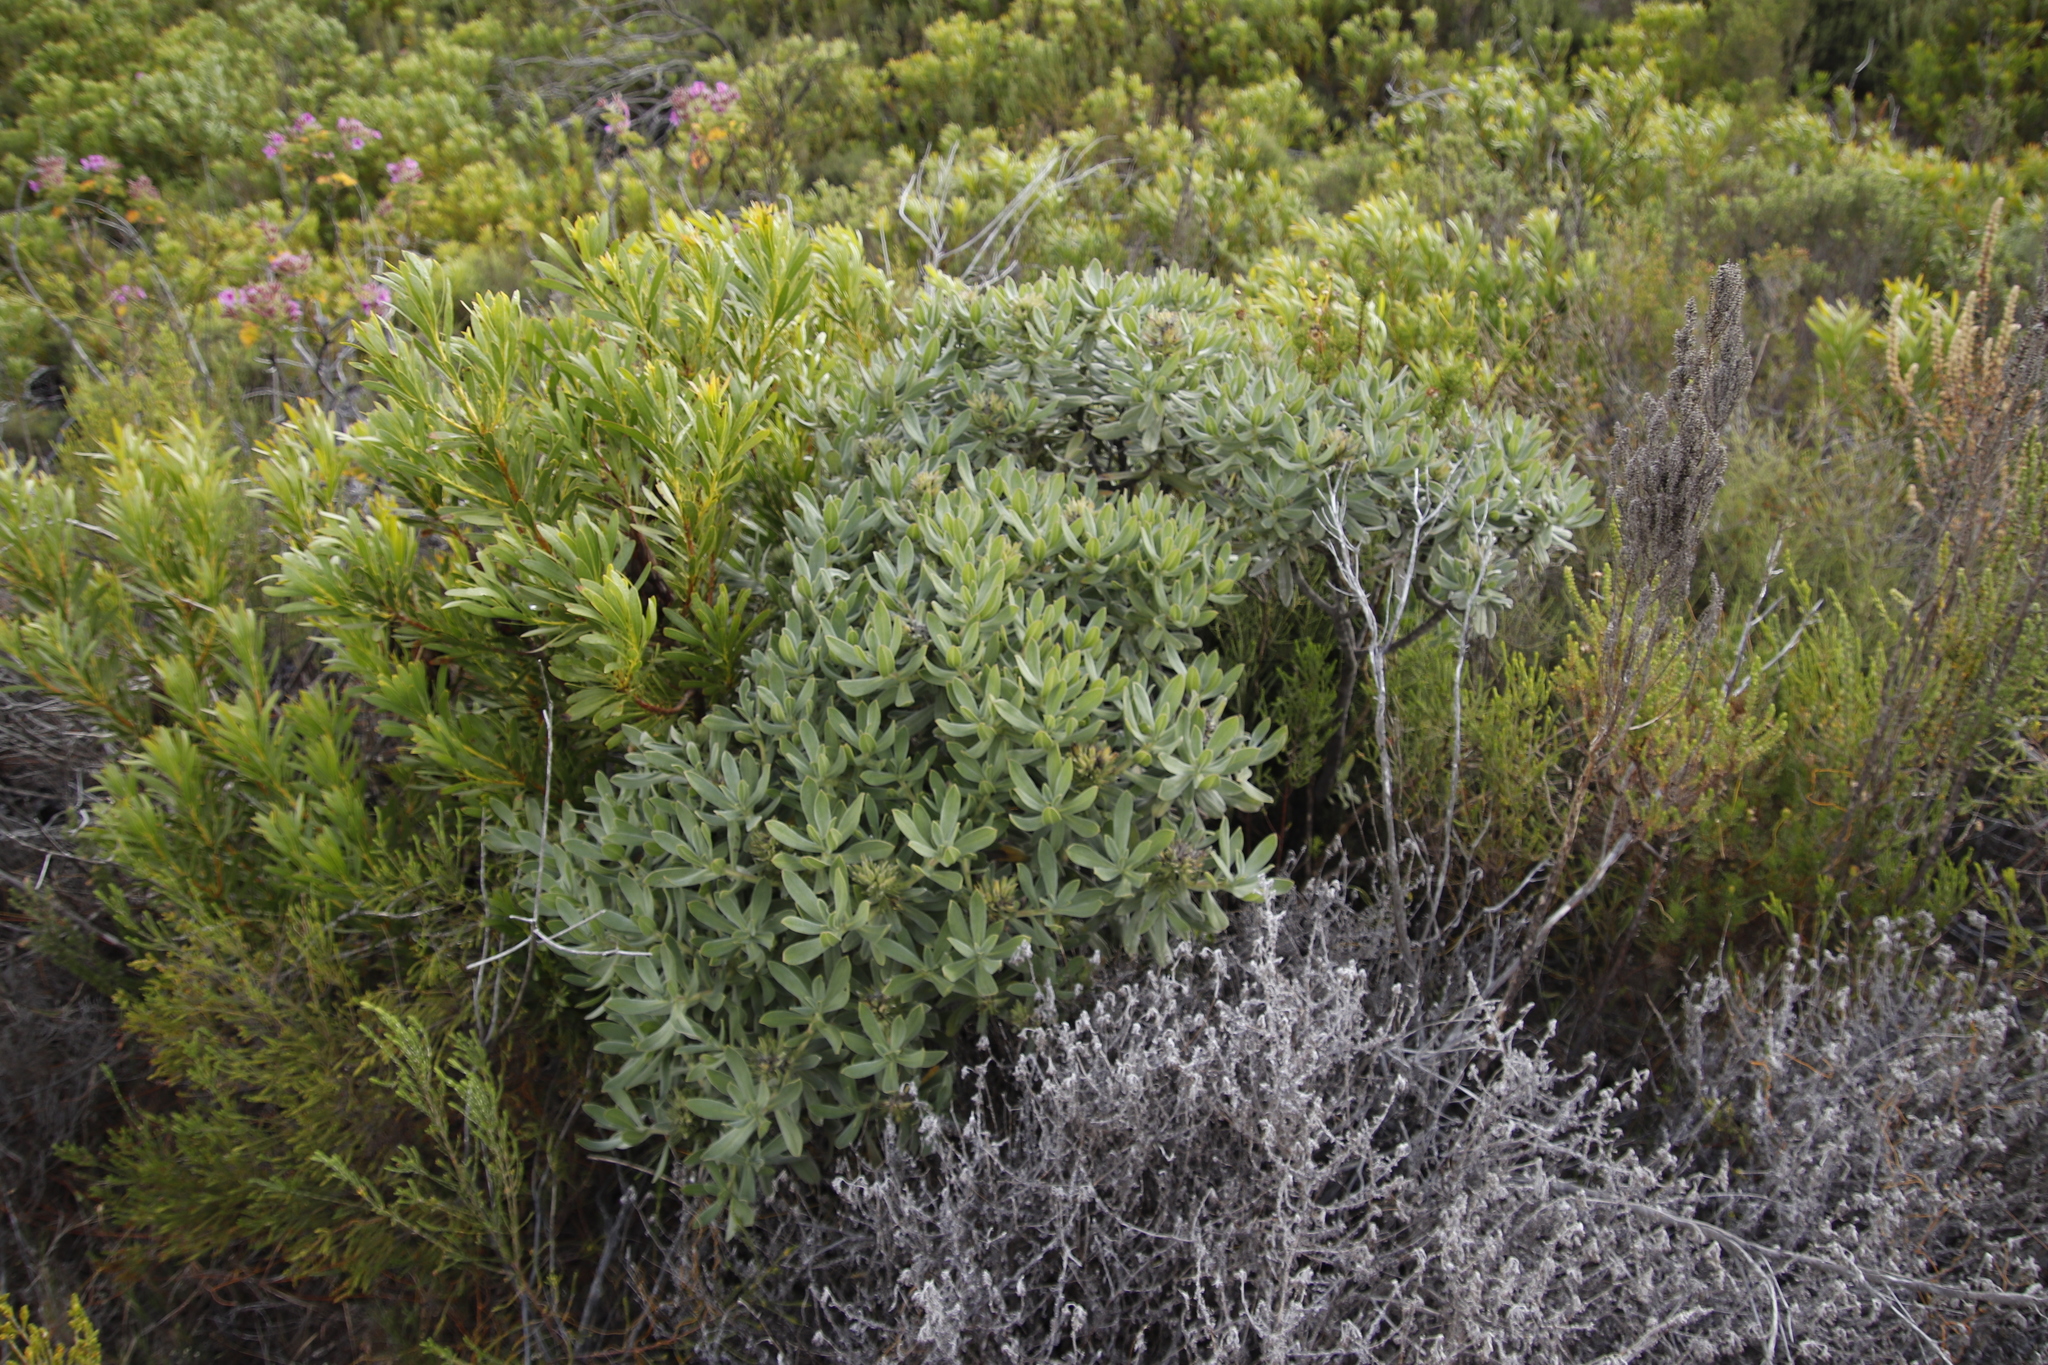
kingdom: Plantae
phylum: Tracheophyta
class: Magnoliopsida
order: Boraginales
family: Boraginaceae
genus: Lobostemon
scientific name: Lobostemon montanus
